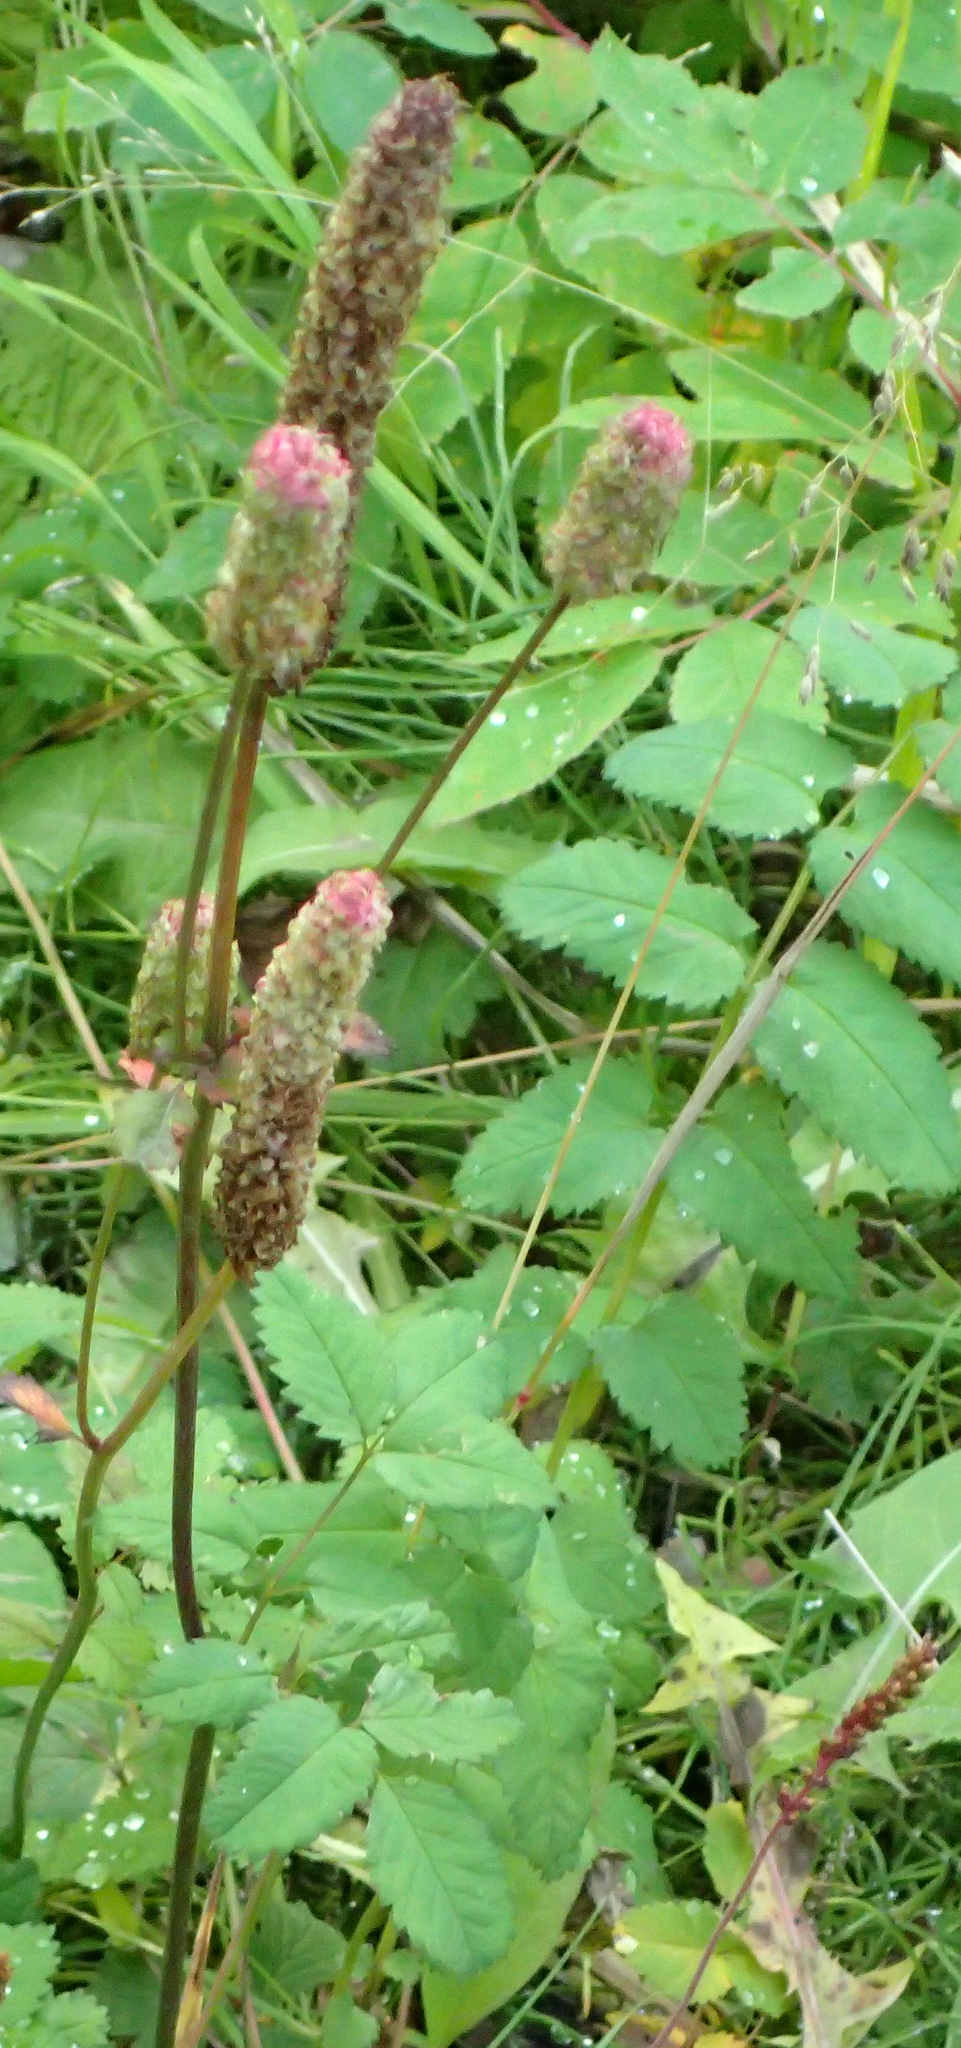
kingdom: Plantae
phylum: Tracheophyta
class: Magnoliopsida
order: Rosales
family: Rosaceae
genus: Sanguisorba
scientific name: Sanguisorba stipulata
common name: Sitka burnet
